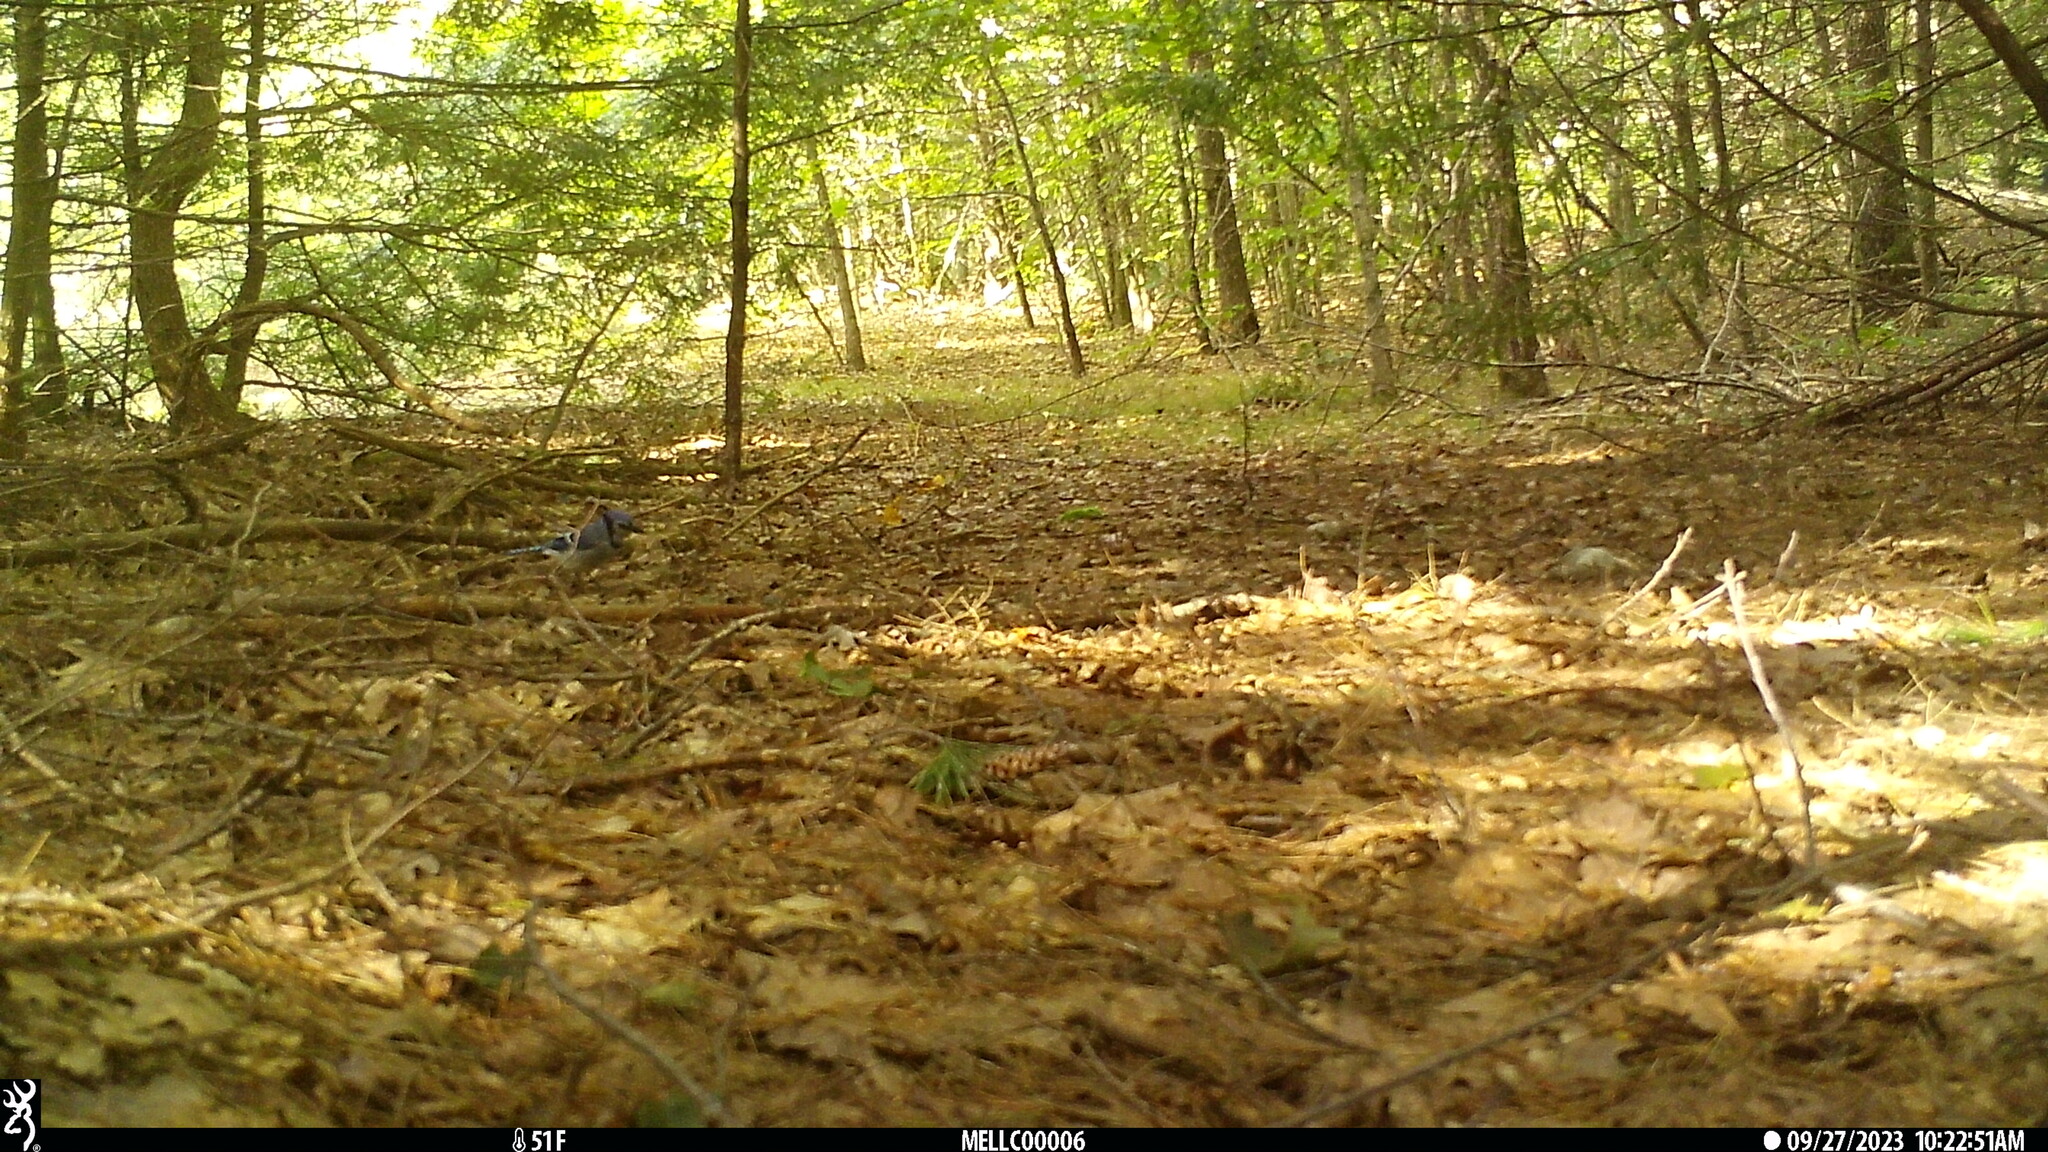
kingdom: Animalia
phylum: Chordata
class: Aves
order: Passeriformes
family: Corvidae
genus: Cyanocitta
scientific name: Cyanocitta cristata
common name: Blue jay
